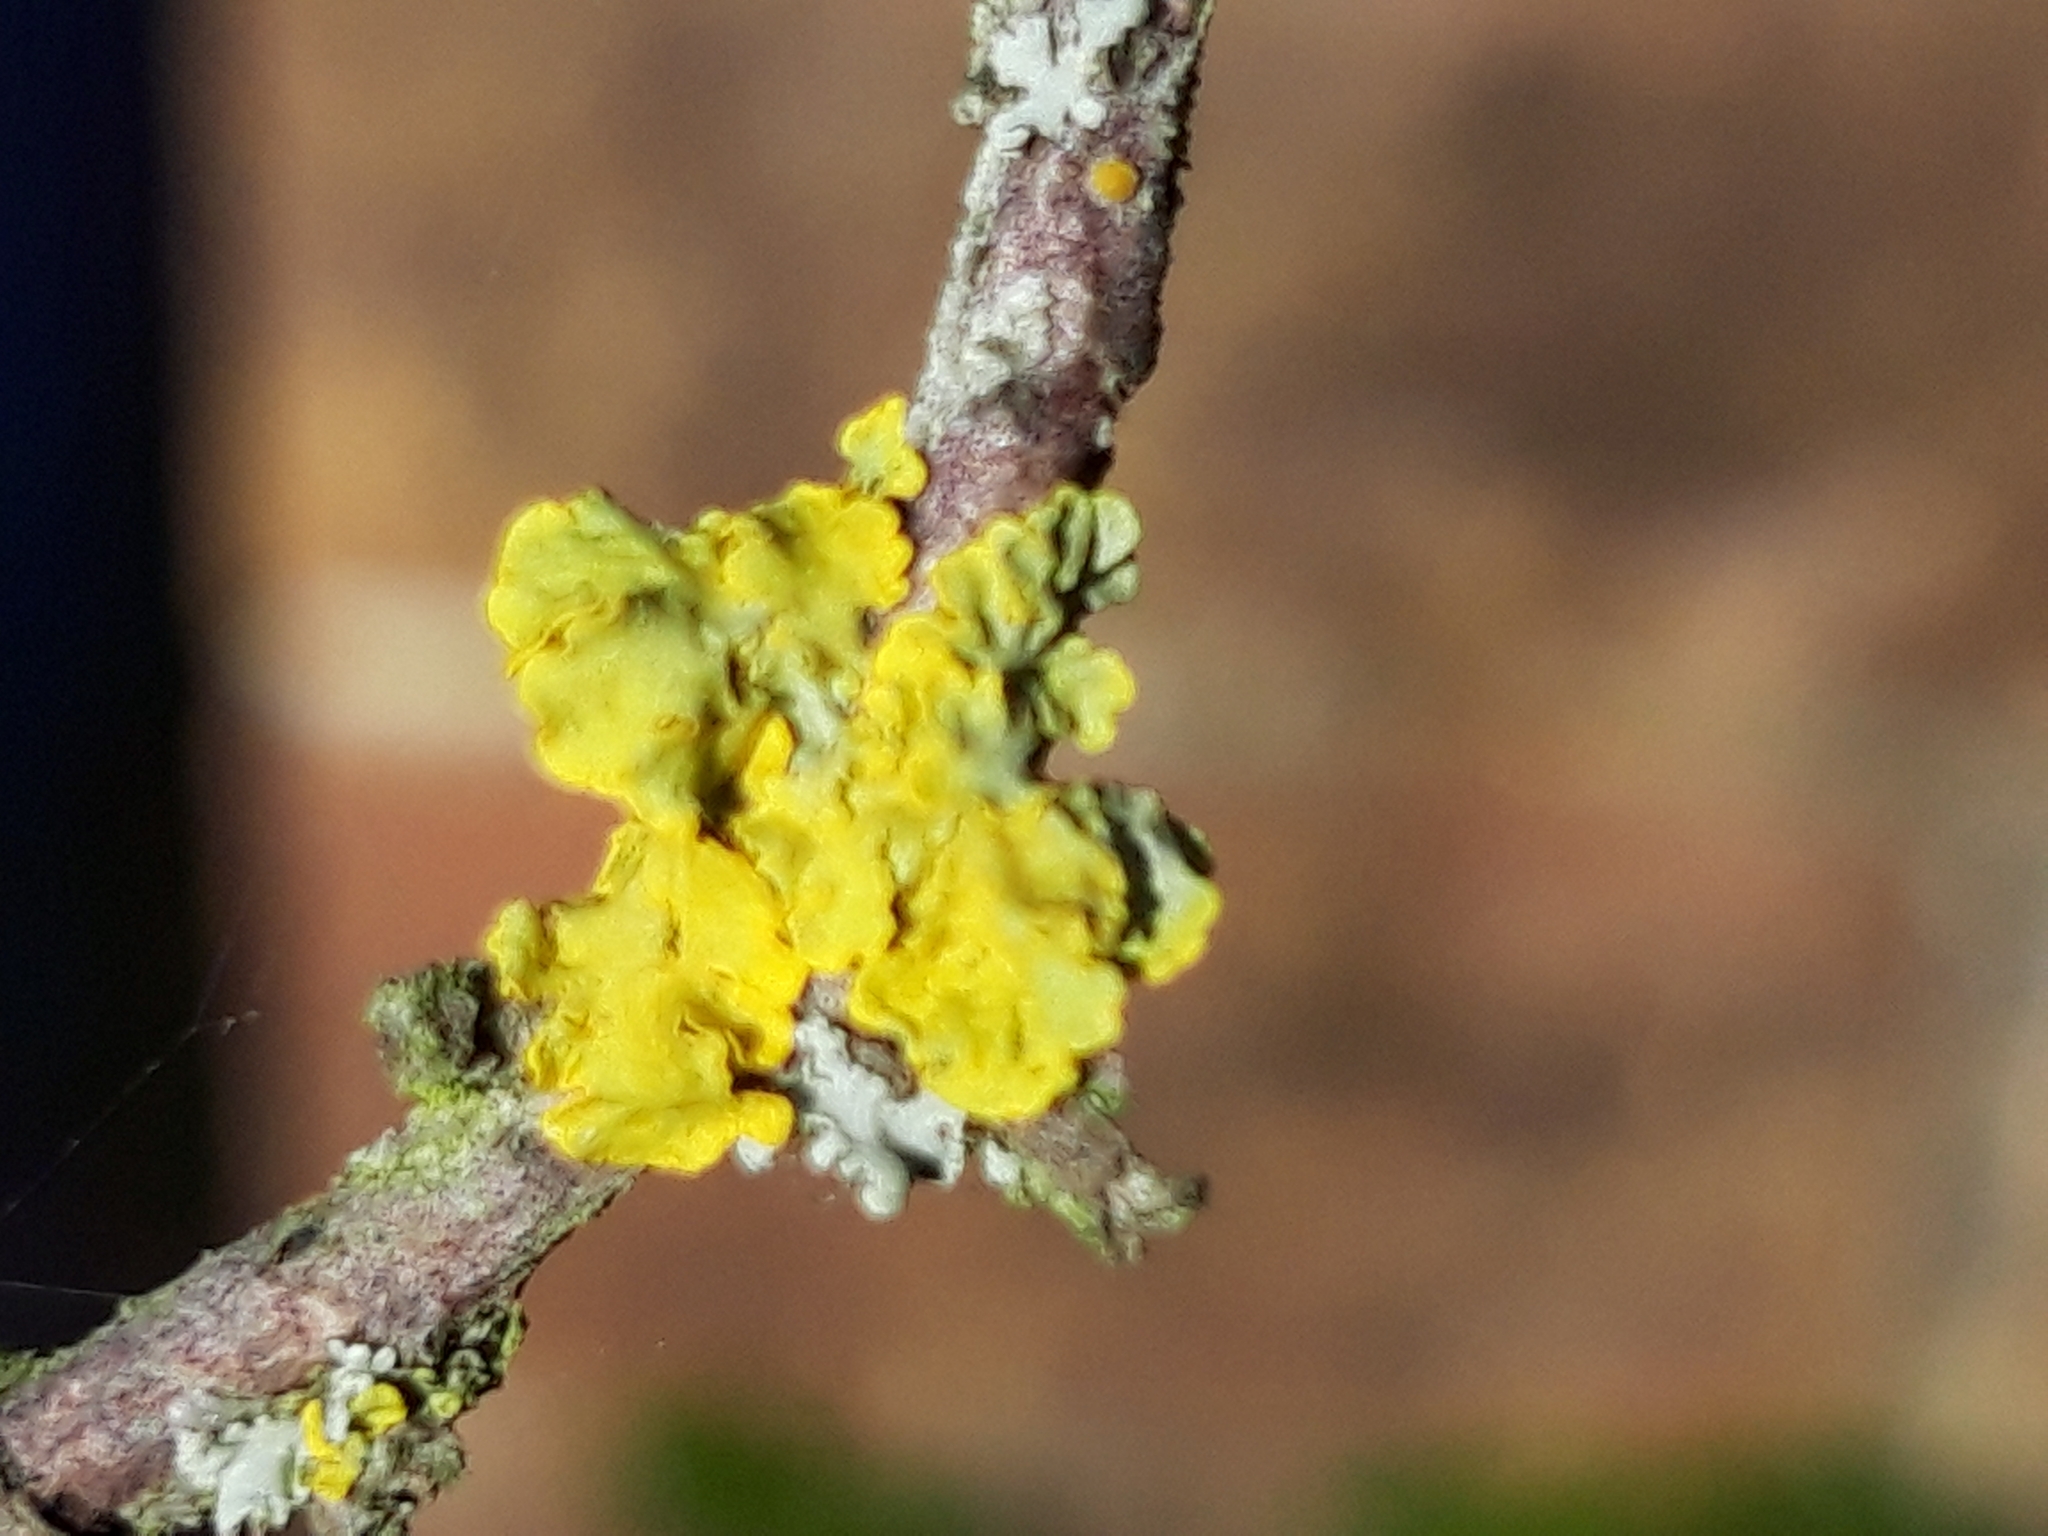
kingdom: Fungi
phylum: Ascomycota
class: Lecanoromycetes
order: Teloschistales
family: Teloschistaceae
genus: Xanthoria
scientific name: Xanthoria parietina
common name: Common orange lichen
